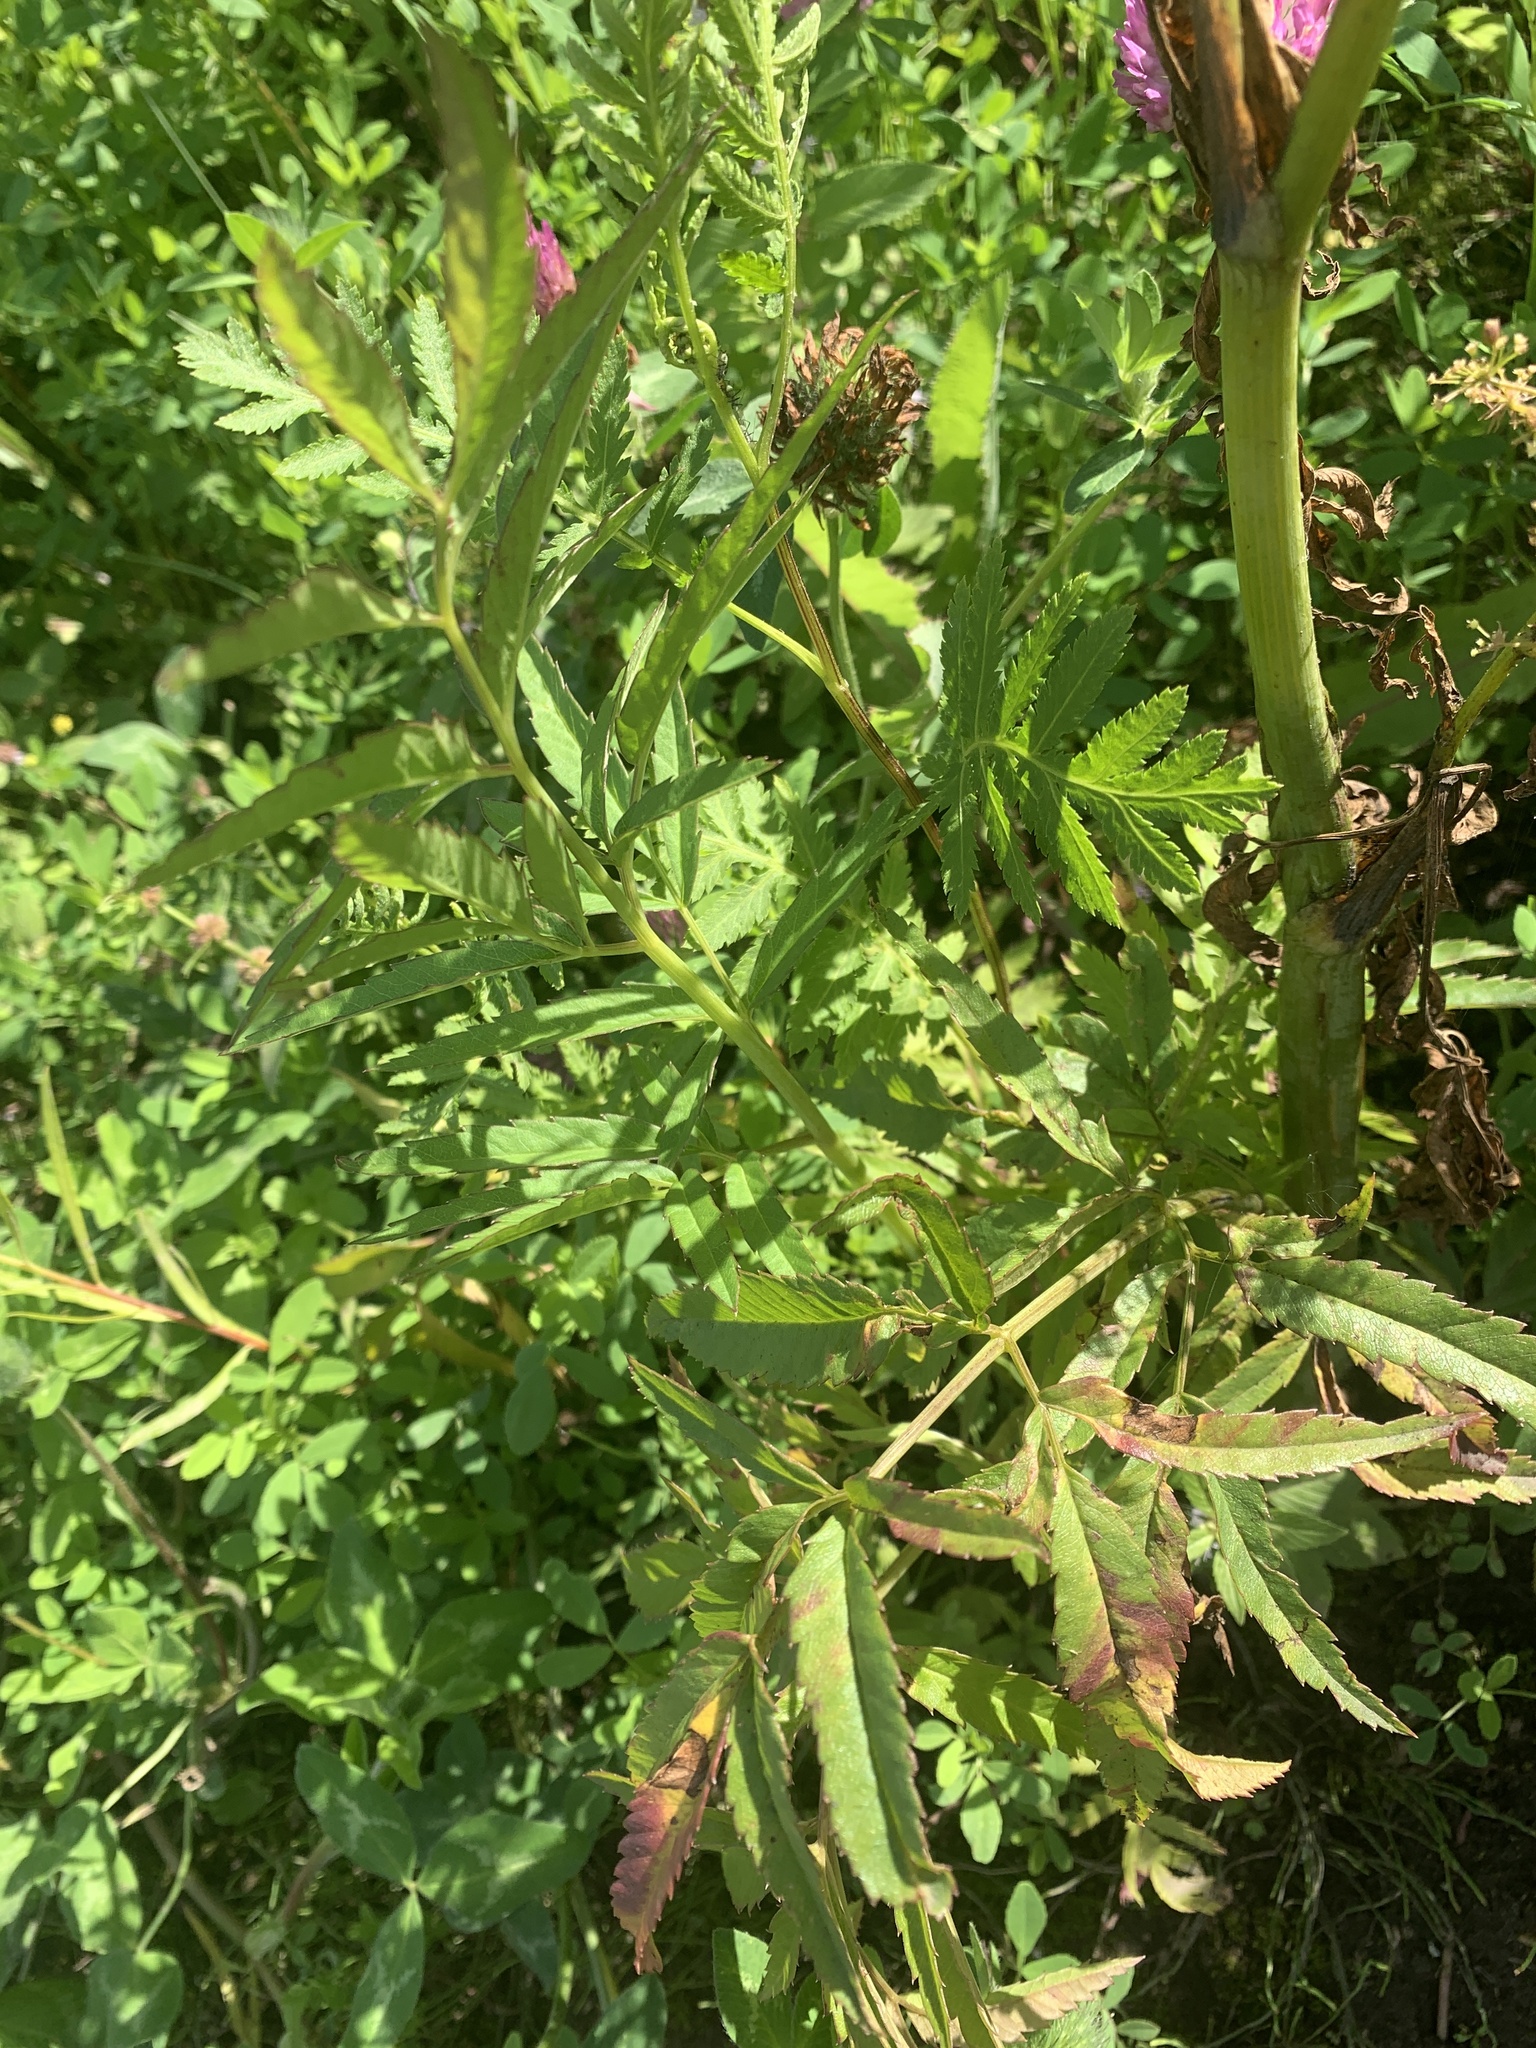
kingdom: Plantae
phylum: Tracheophyta
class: Magnoliopsida
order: Apiales
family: Apiaceae
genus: Cicuta
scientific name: Cicuta maculata
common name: Spotted cowbane
